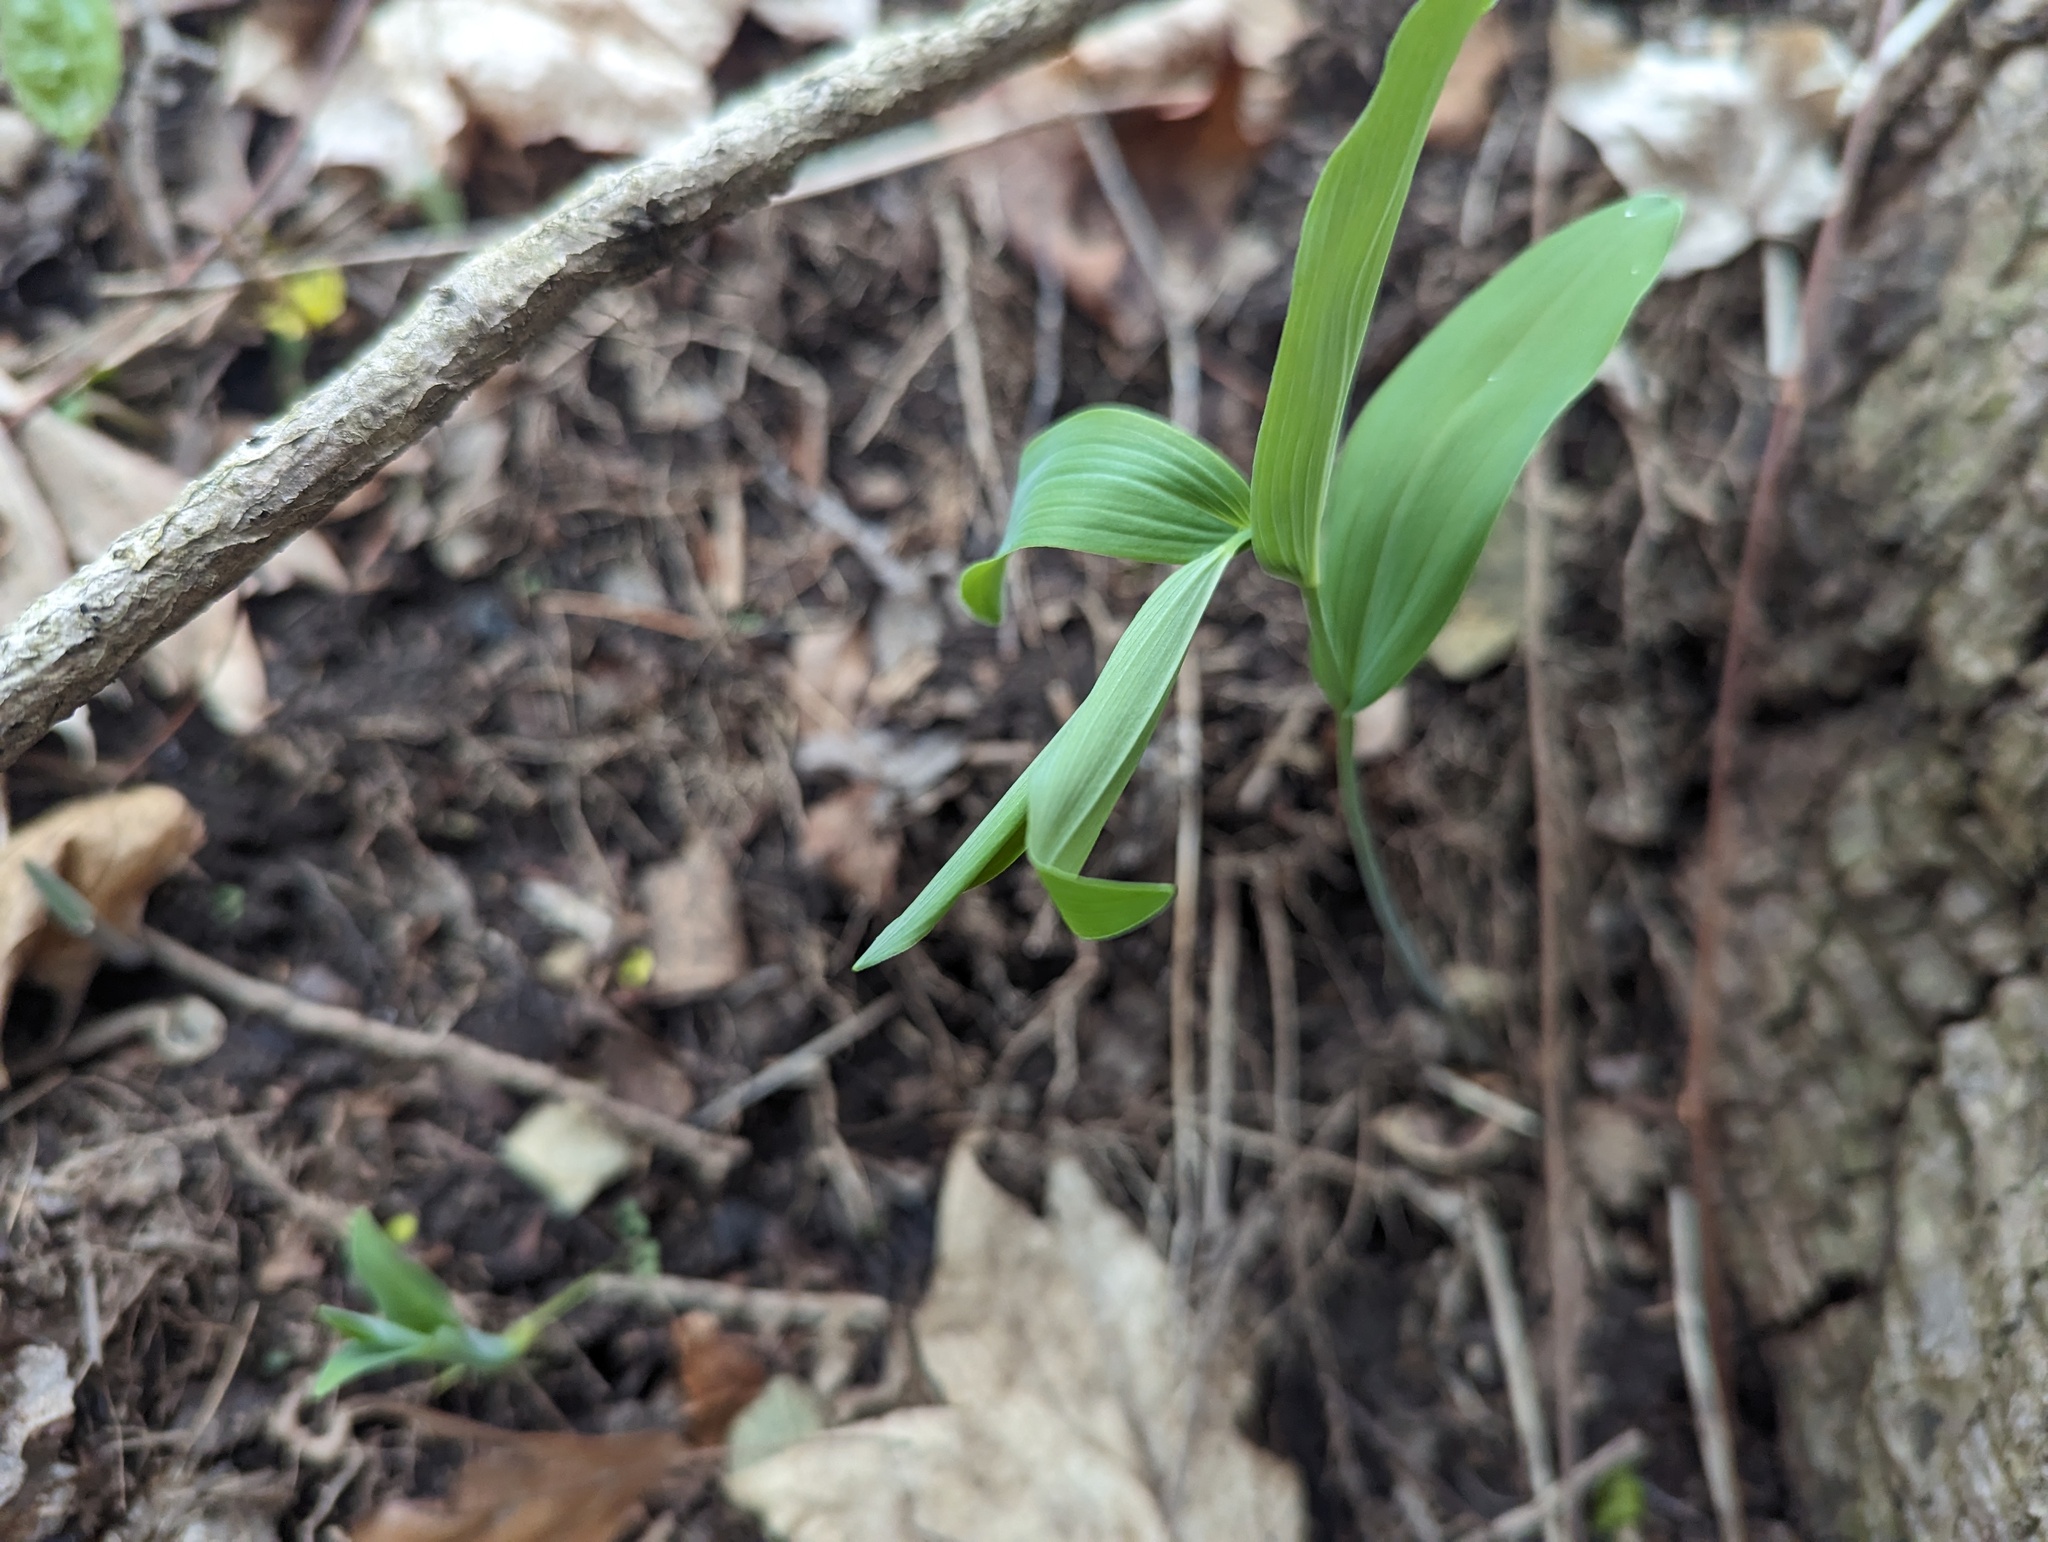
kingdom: Plantae
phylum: Tracheophyta
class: Liliopsida
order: Asparagales
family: Asparagaceae
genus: Polygonatum
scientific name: Polygonatum biflorum
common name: American solomon's-seal
